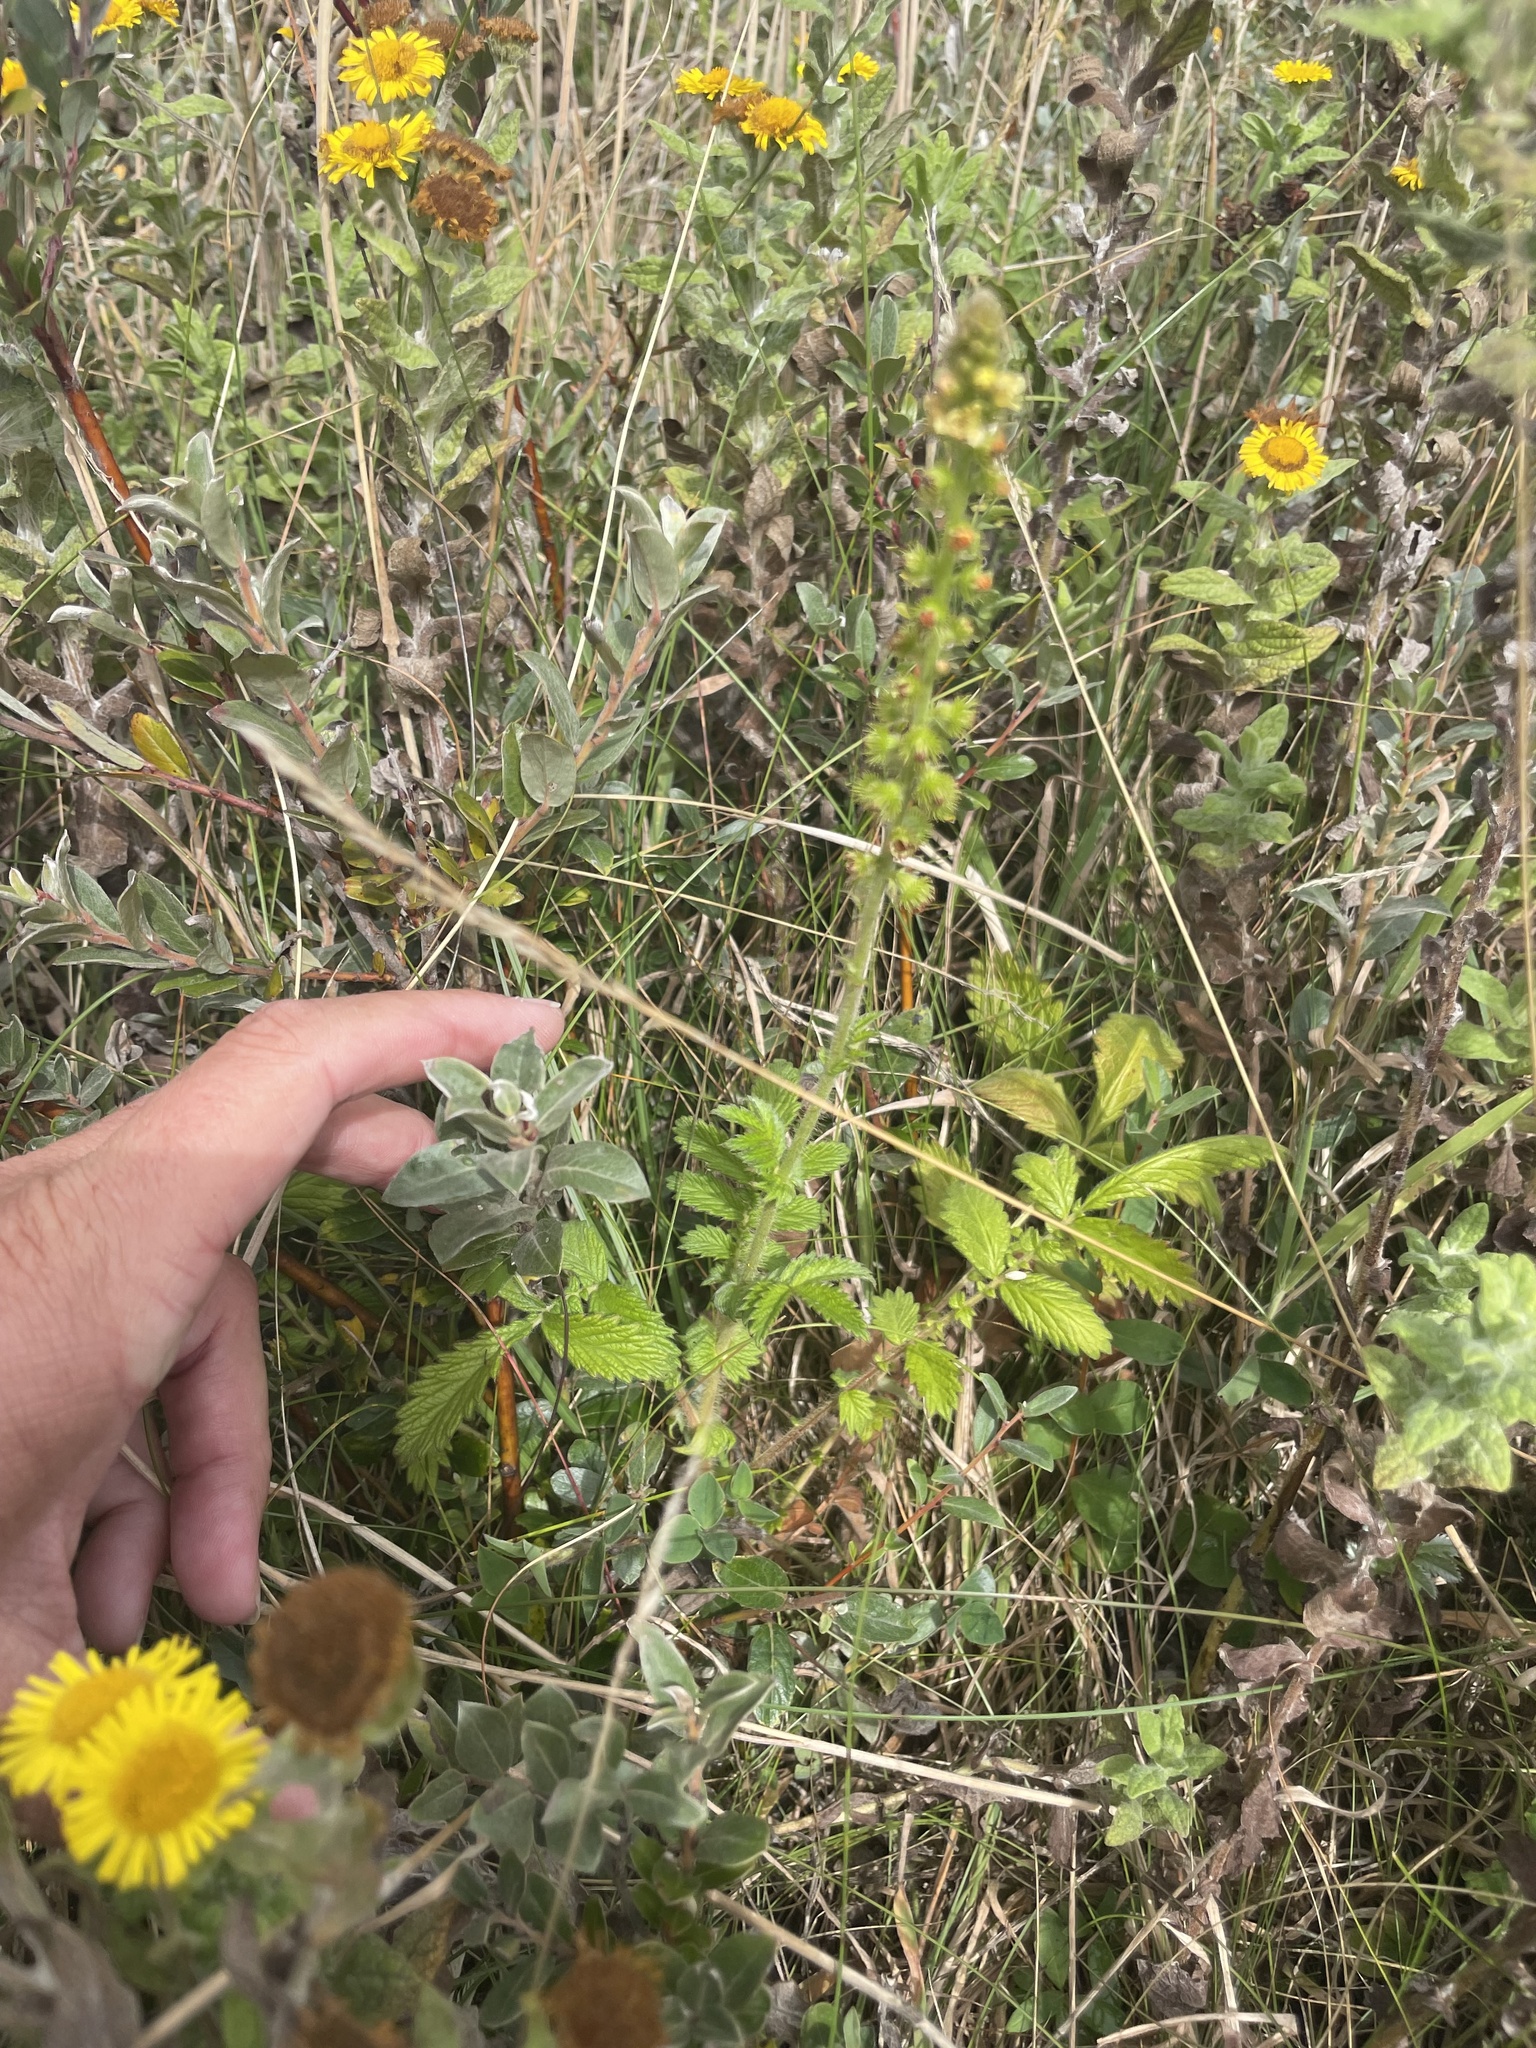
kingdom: Plantae
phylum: Tracheophyta
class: Magnoliopsida
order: Rosales
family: Rosaceae
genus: Agrimonia
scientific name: Agrimonia eupatoria
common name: Agrimony
